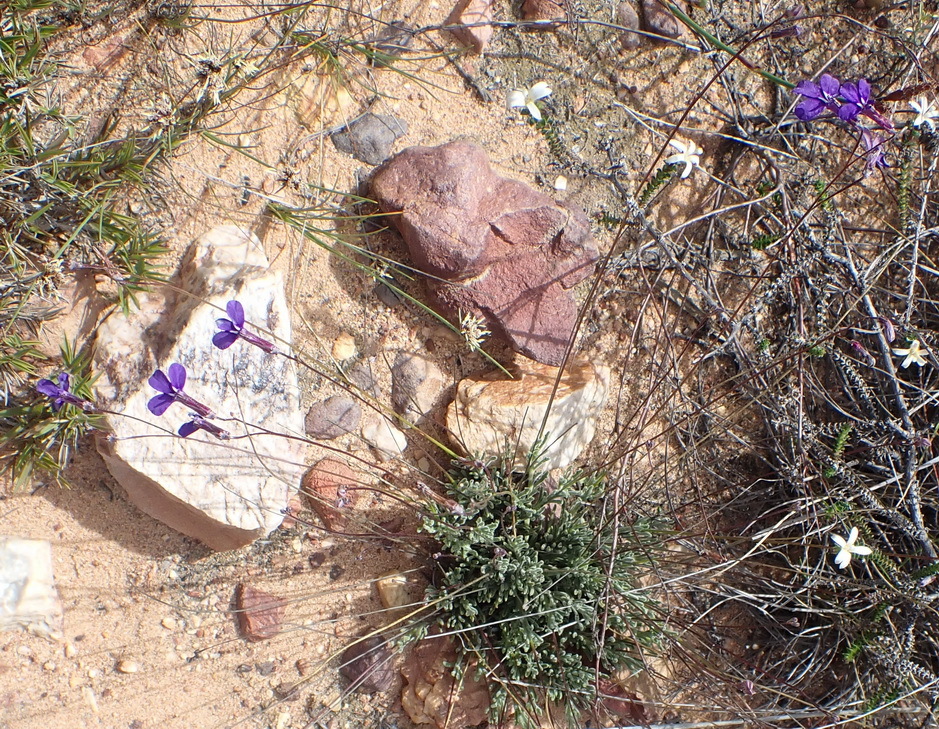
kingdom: Plantae
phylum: Tracheophyta
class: Magnoliopsida
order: Asterales
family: Campanulaceae
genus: Lobelia
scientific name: Lobelia tomentosa
